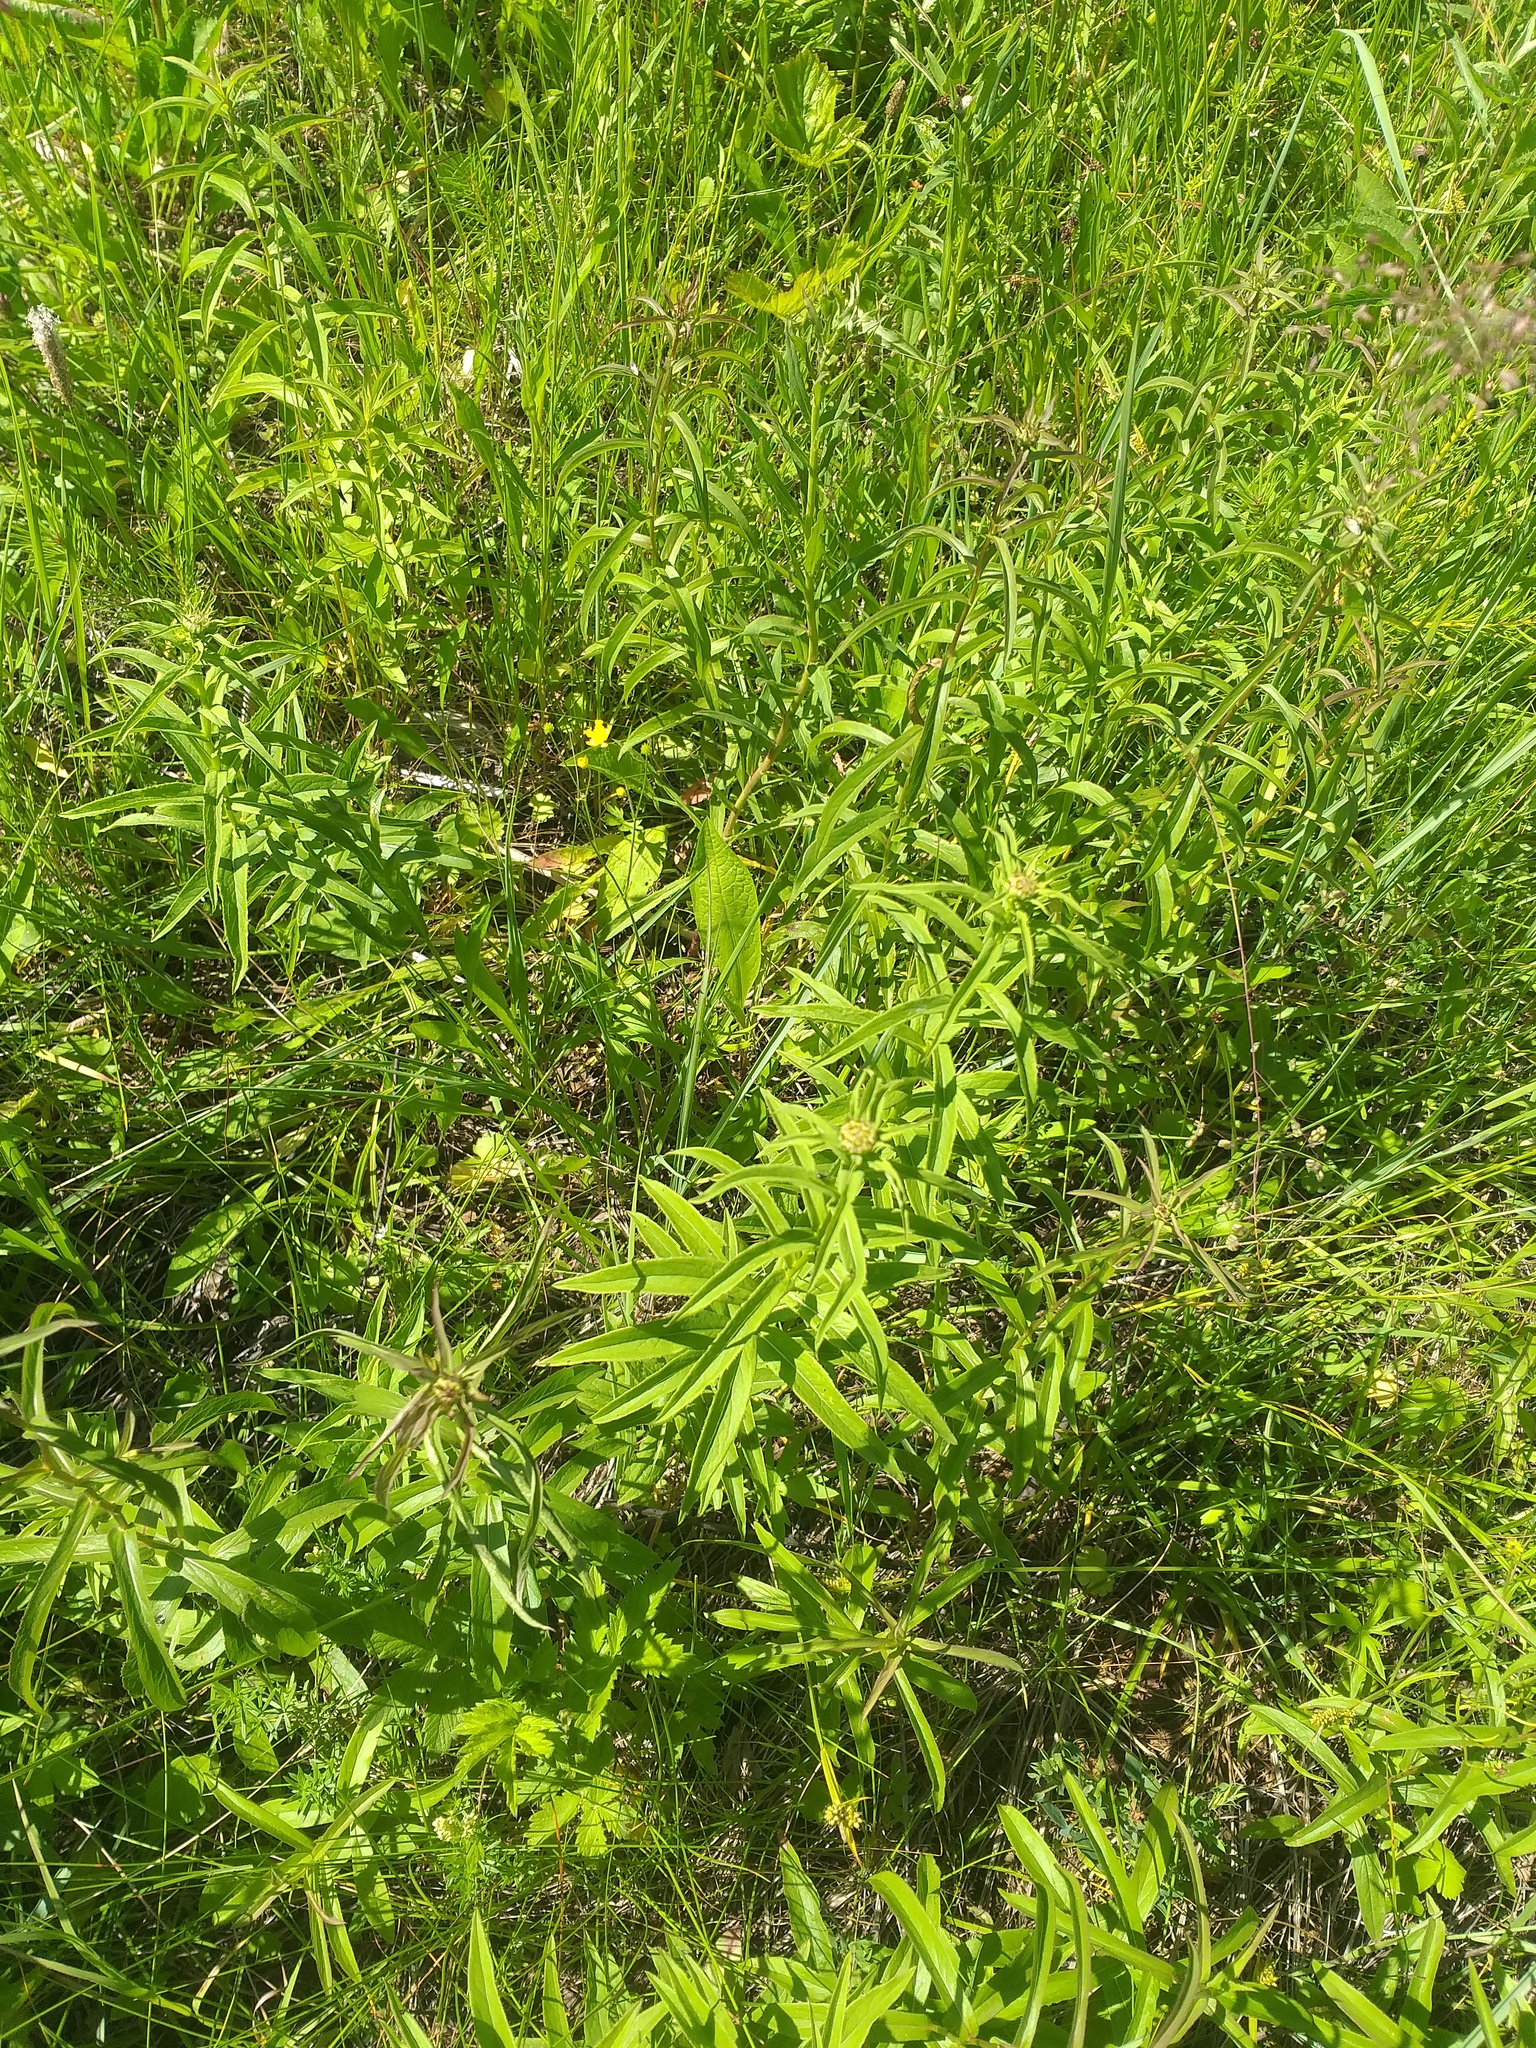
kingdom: Plantae
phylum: Tracheophyta
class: Magnoliopsida
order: Asterales
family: Asteraceae
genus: Pentanema
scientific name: Pentanema salicinum
